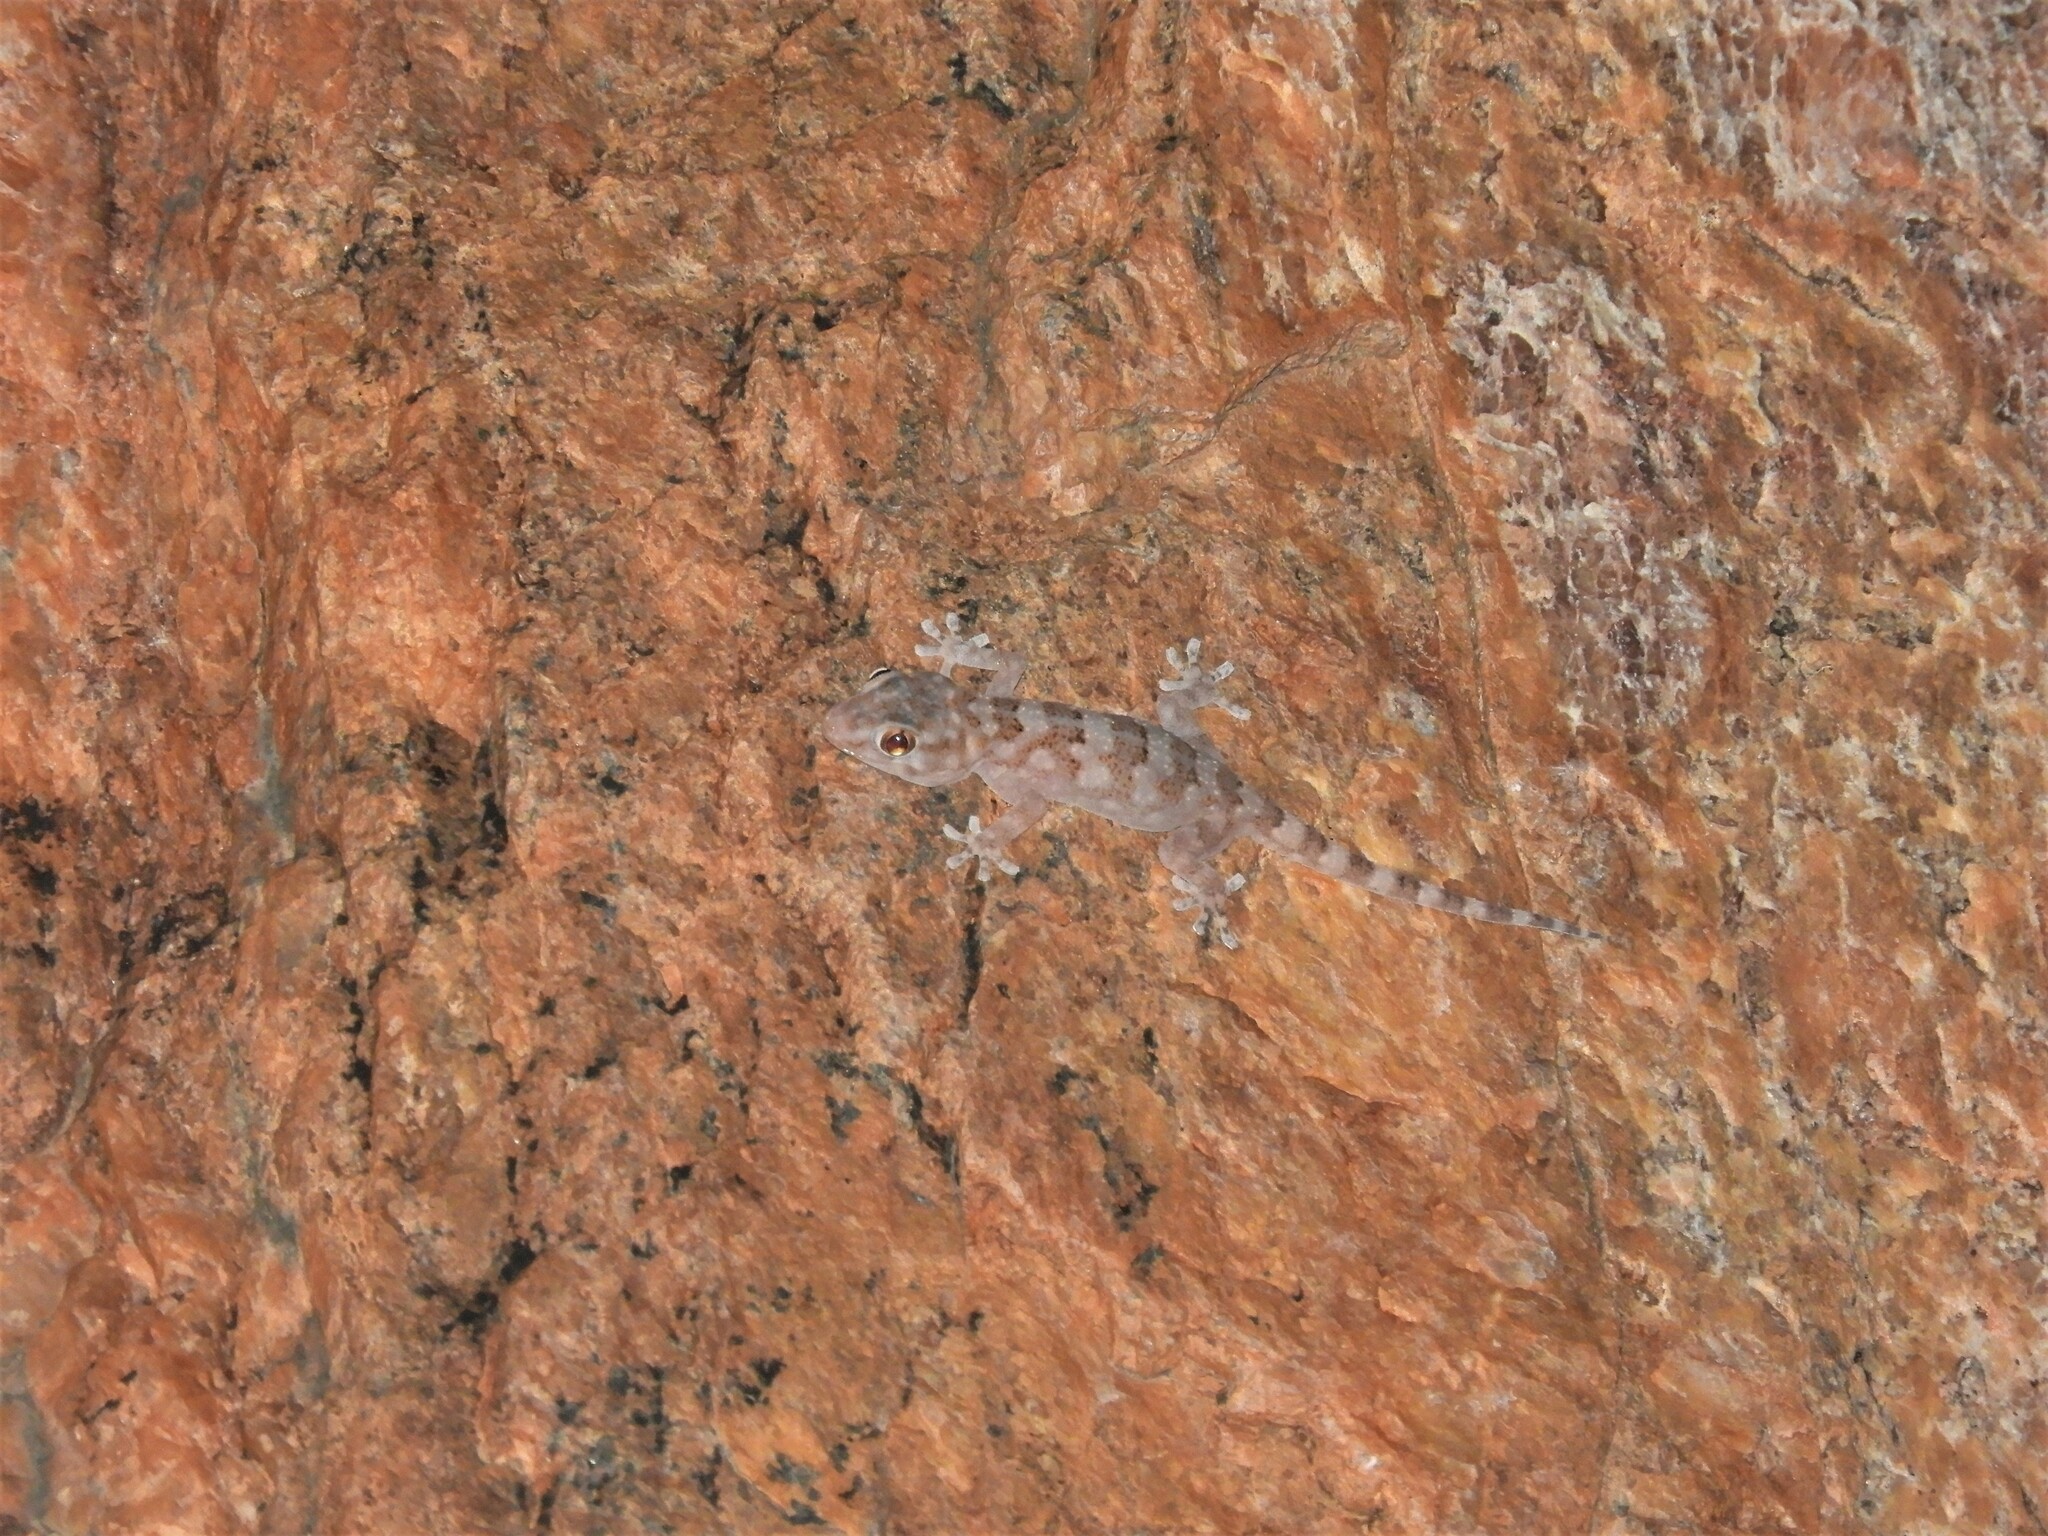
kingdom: Animalia
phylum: Chordata
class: Squamata
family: Gekkonidae
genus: Pachydactylus
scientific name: Pachydactylus haackei
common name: Haacke's gecko
